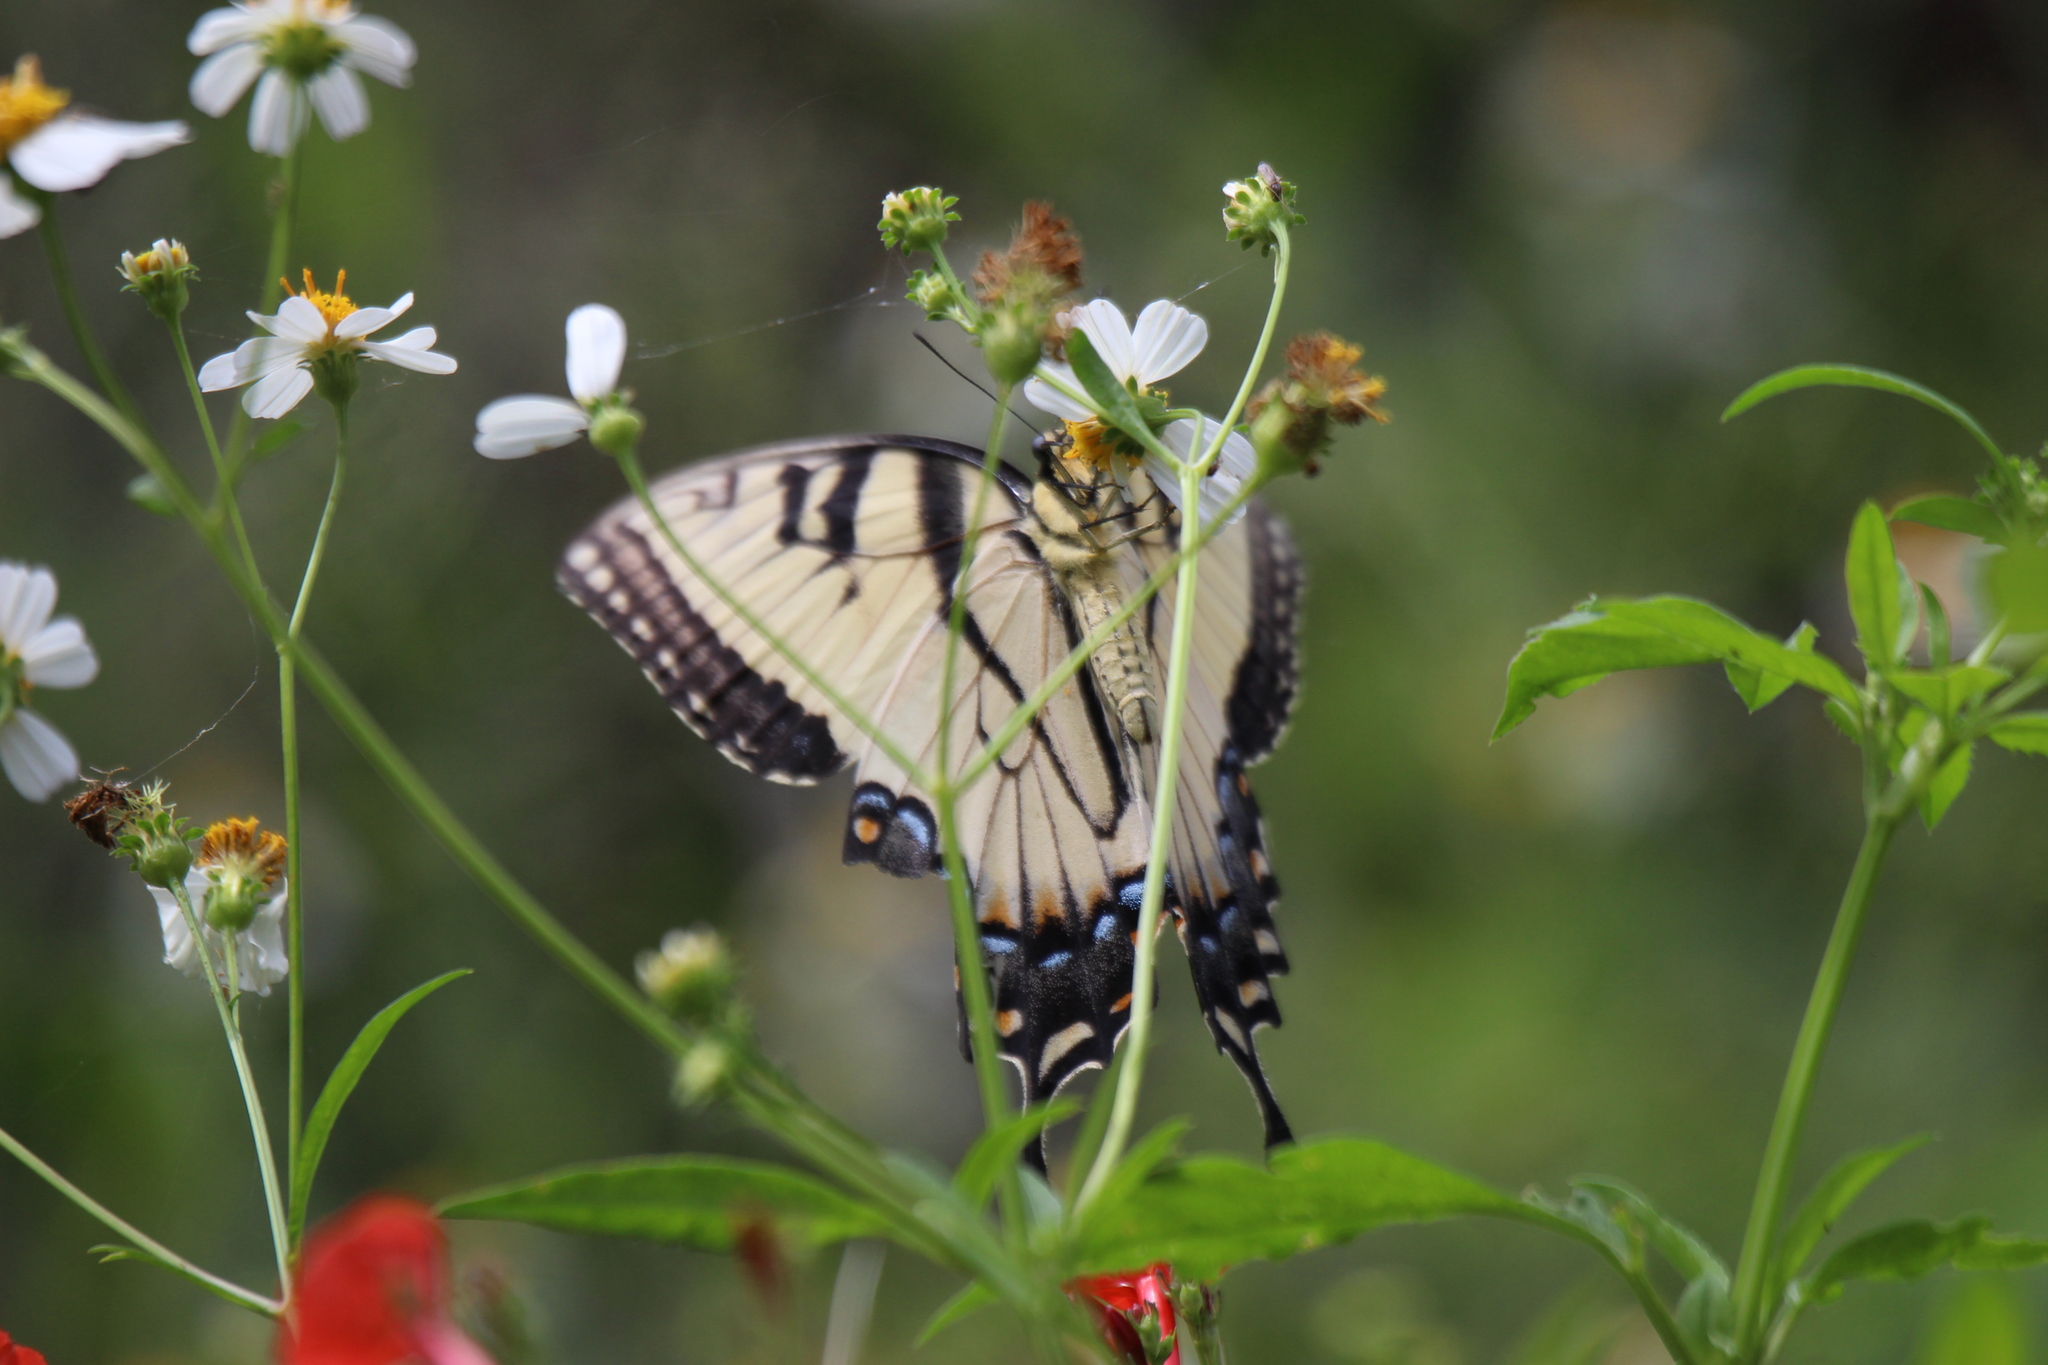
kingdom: Animalia
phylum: Arthropoda
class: Insecta
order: Lepidoptera
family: Papilionidae
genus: Papilio
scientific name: Papilio glaucus
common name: Tiger swallowtail
